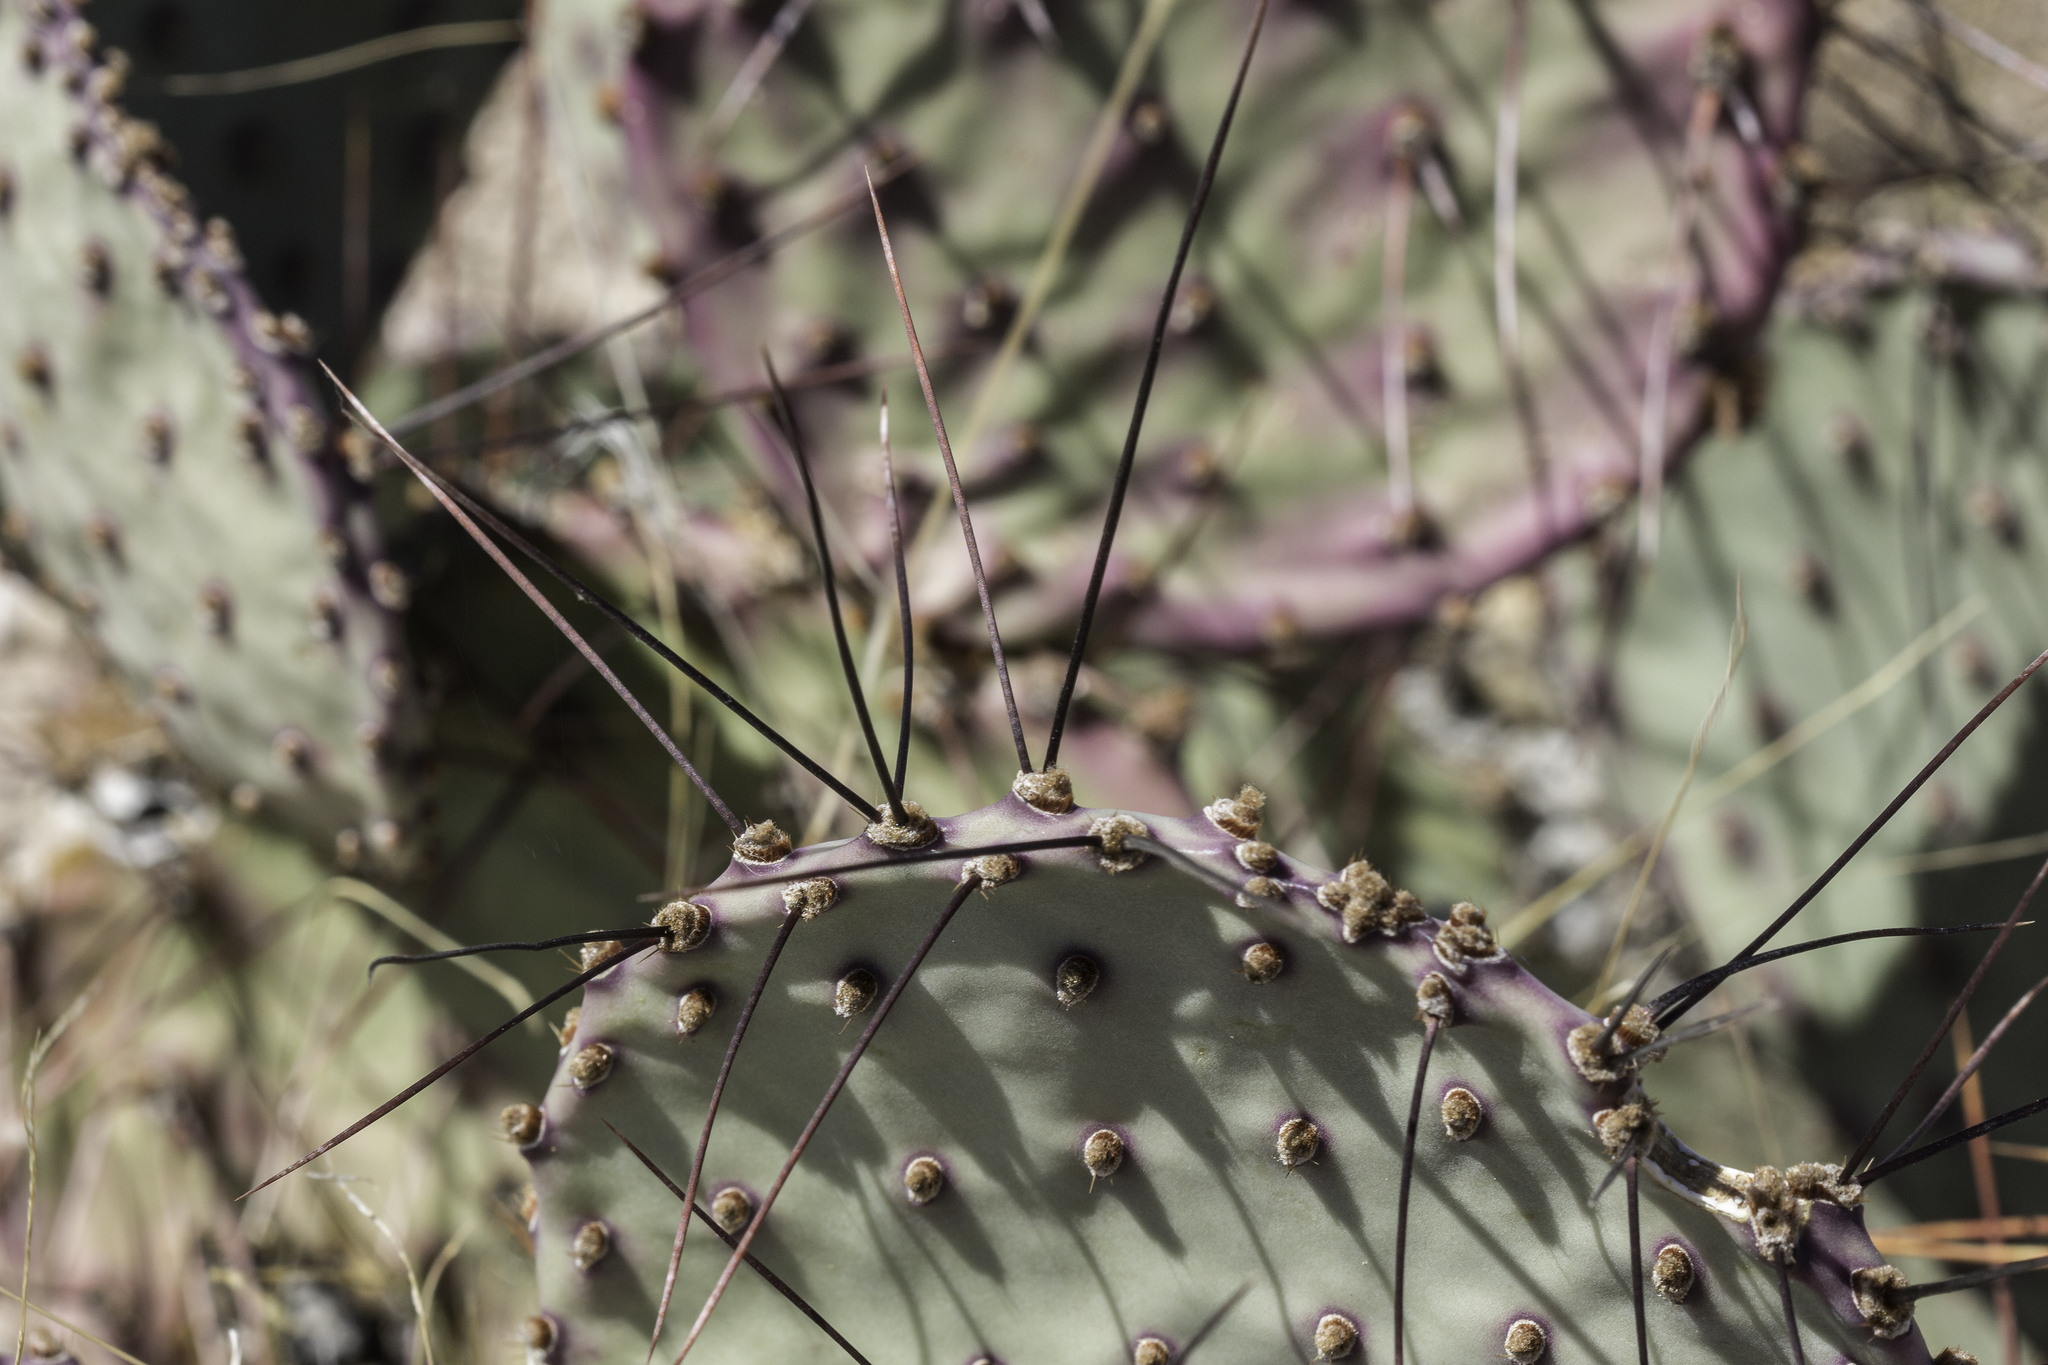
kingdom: Plantae
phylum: Tracheophyta
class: Magnoliopsida
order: Caryophyllales
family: Cactaceae
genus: Opuntia
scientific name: Opuntia macrocentra
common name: Purple prickly-pear
